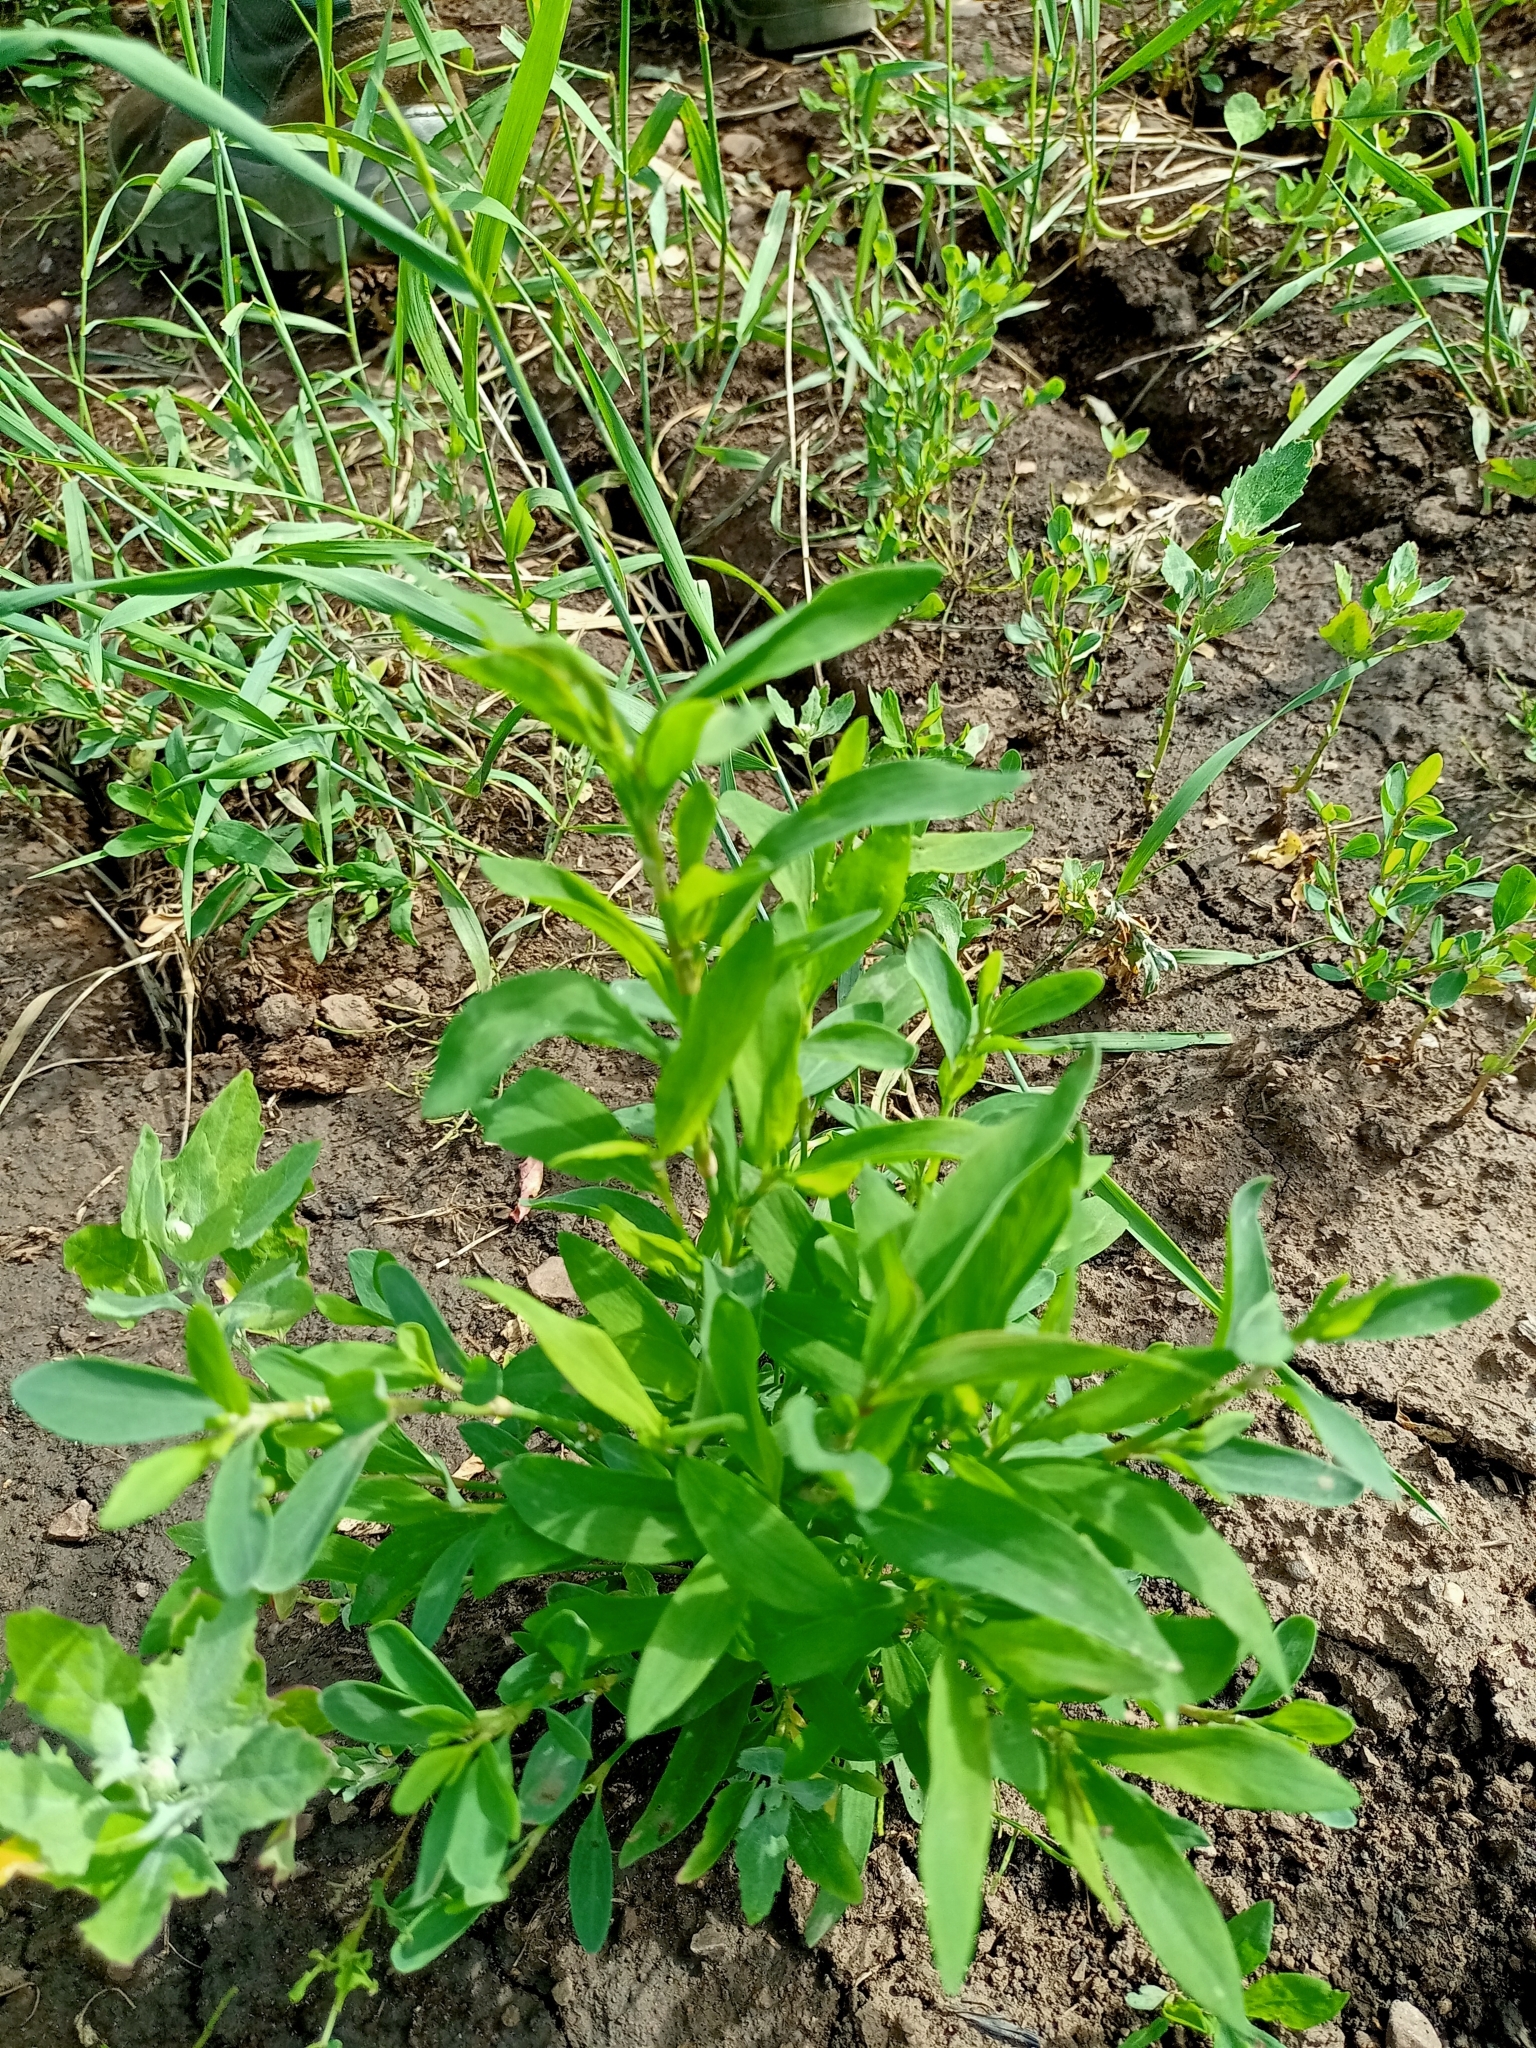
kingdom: Plantae
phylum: Tracheophyta
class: Magnoliopsida
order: Caryophyllales
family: Polygonaceae
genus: Polygonum
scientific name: Polygonum aviculare
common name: Prostrate knotweed
